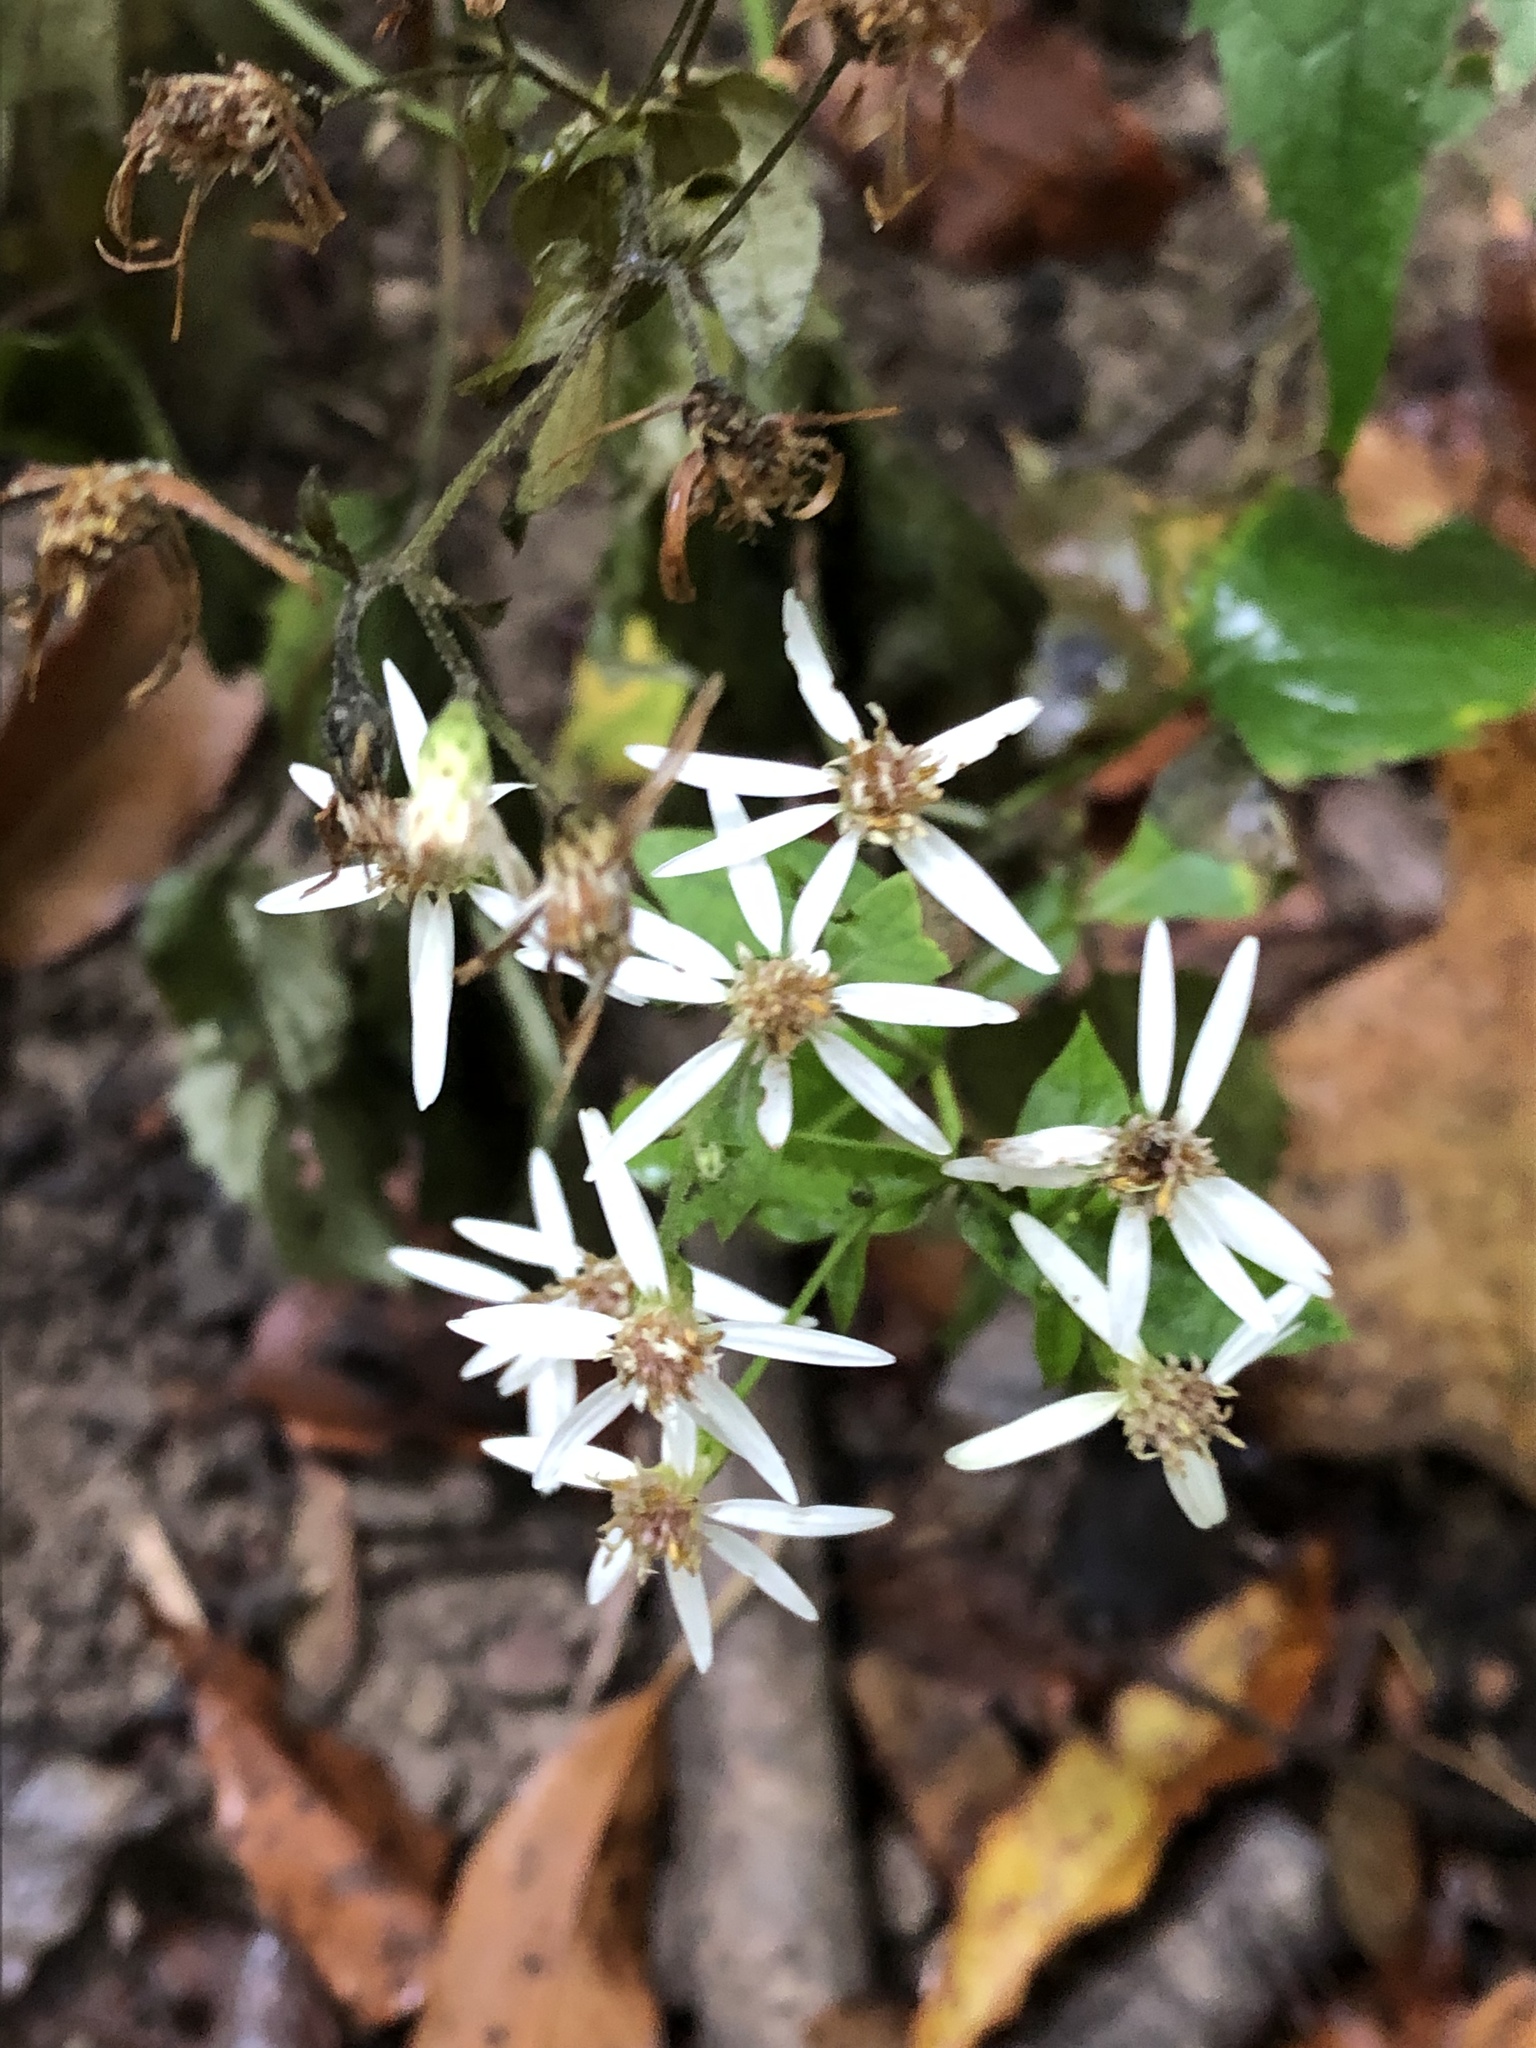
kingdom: Plantae
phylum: Tracheophyta
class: Magnoliopsida
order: Asterales
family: Asteraceae
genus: Eurybia
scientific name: Eurybia divaricata
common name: White wood aster
